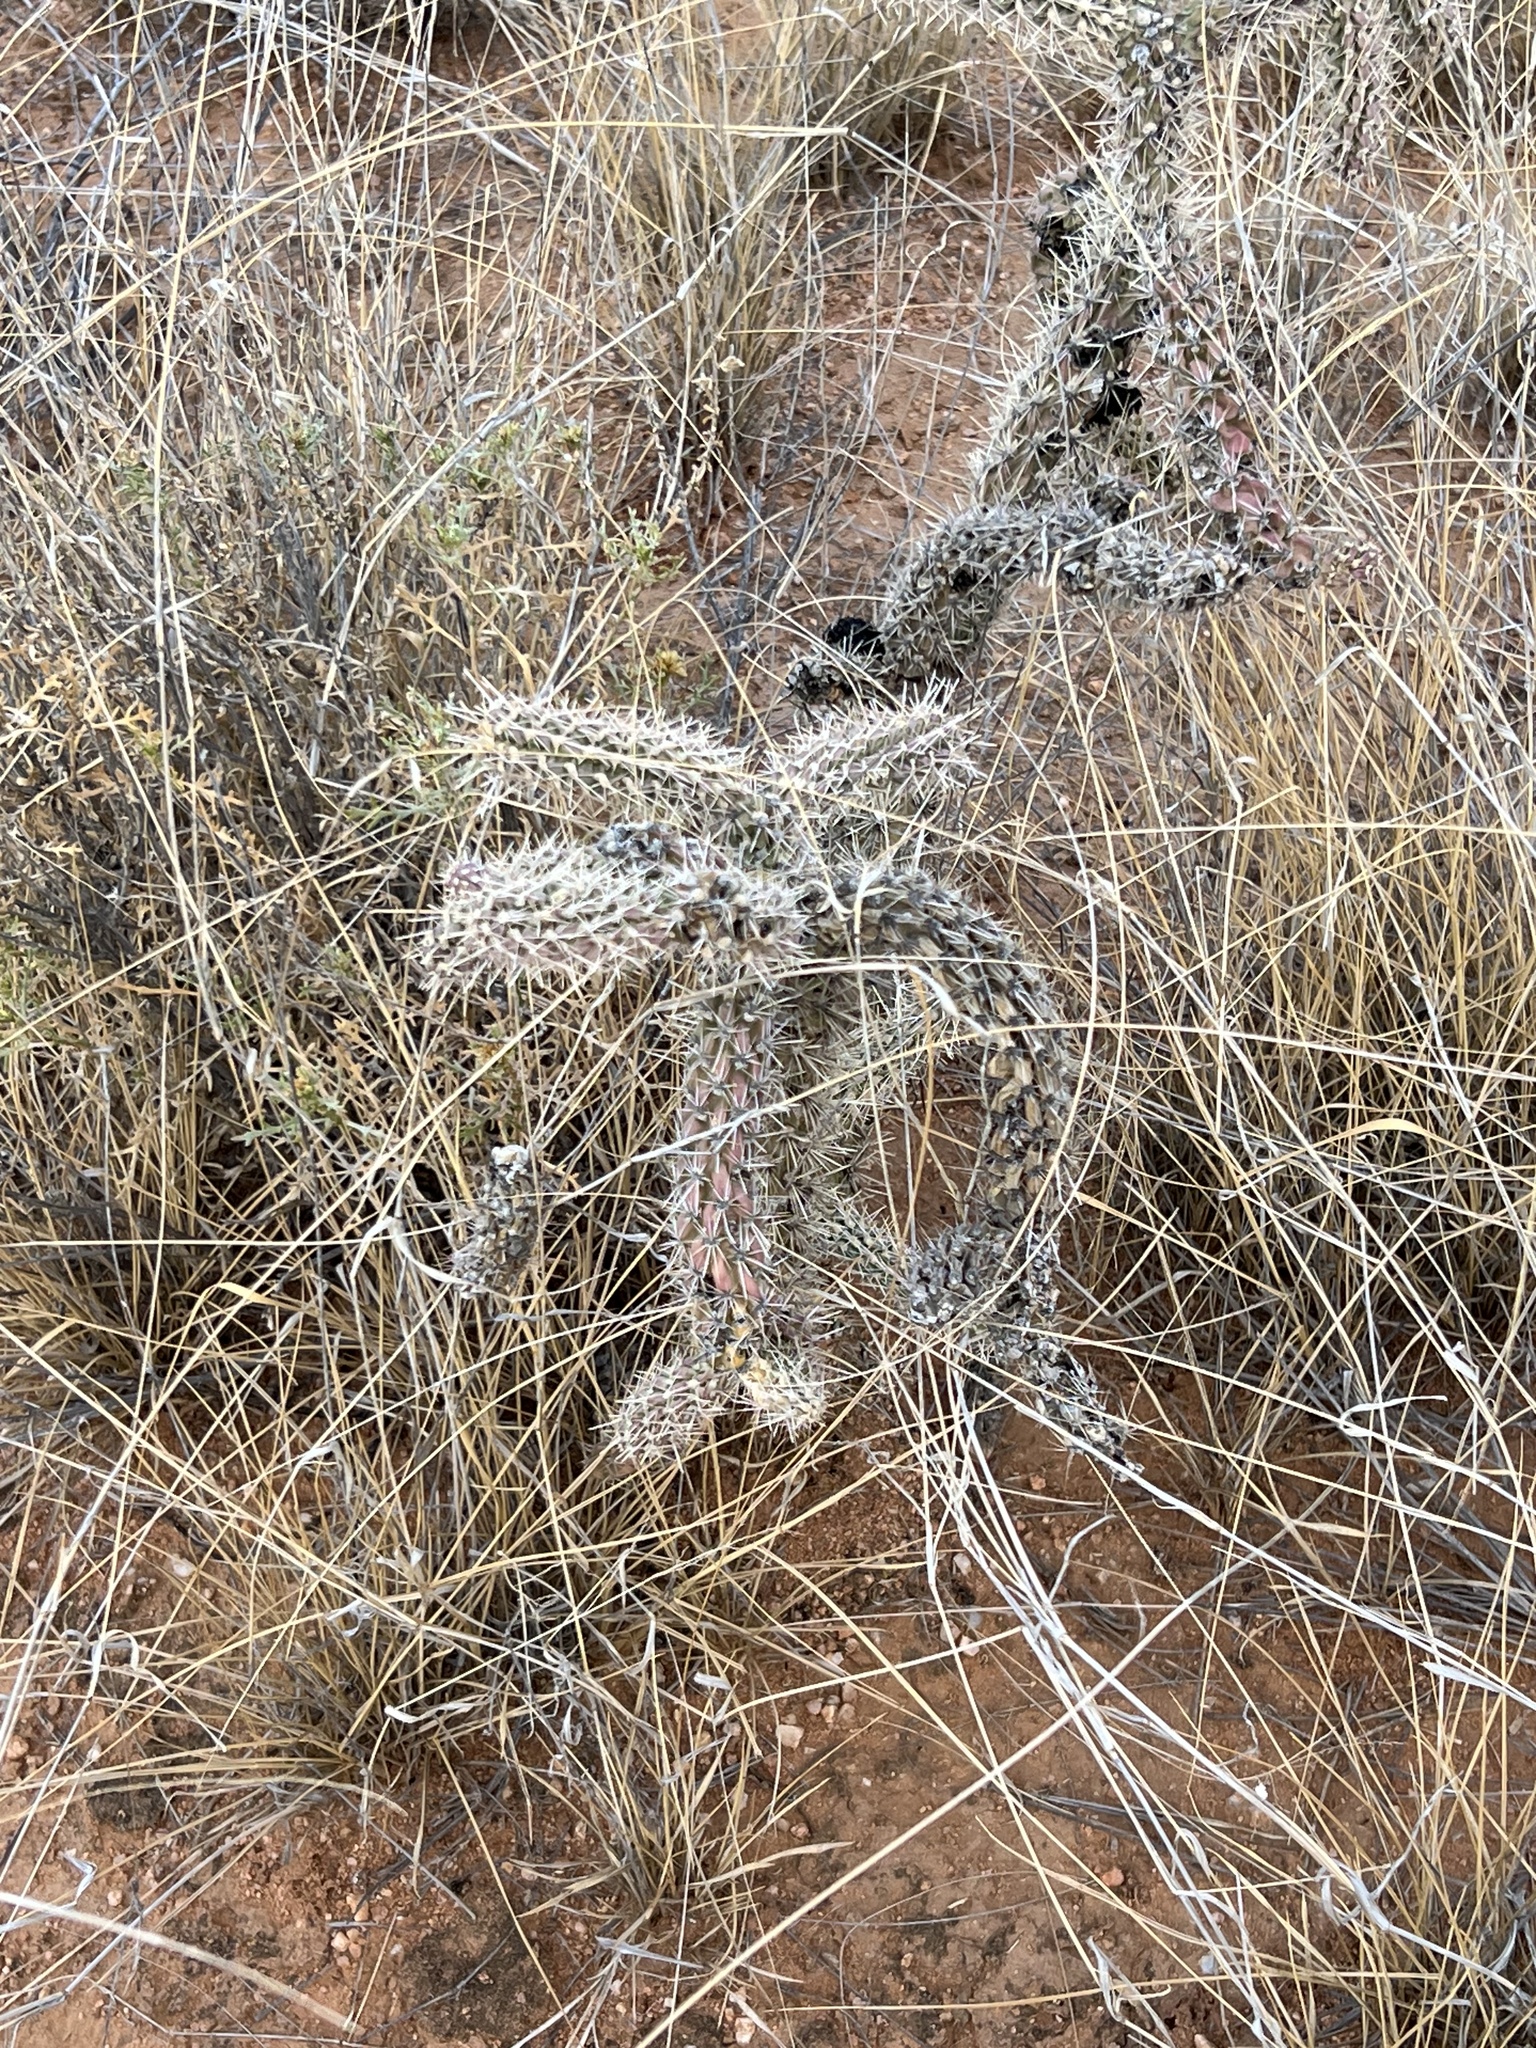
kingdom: Plantae
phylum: Tracheophyta
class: Magnoliopsida
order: Caryophyllales
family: Cactaceae
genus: Cylindropuntia
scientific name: Cylindropuntia imbricata
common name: Candelabrum cactus
